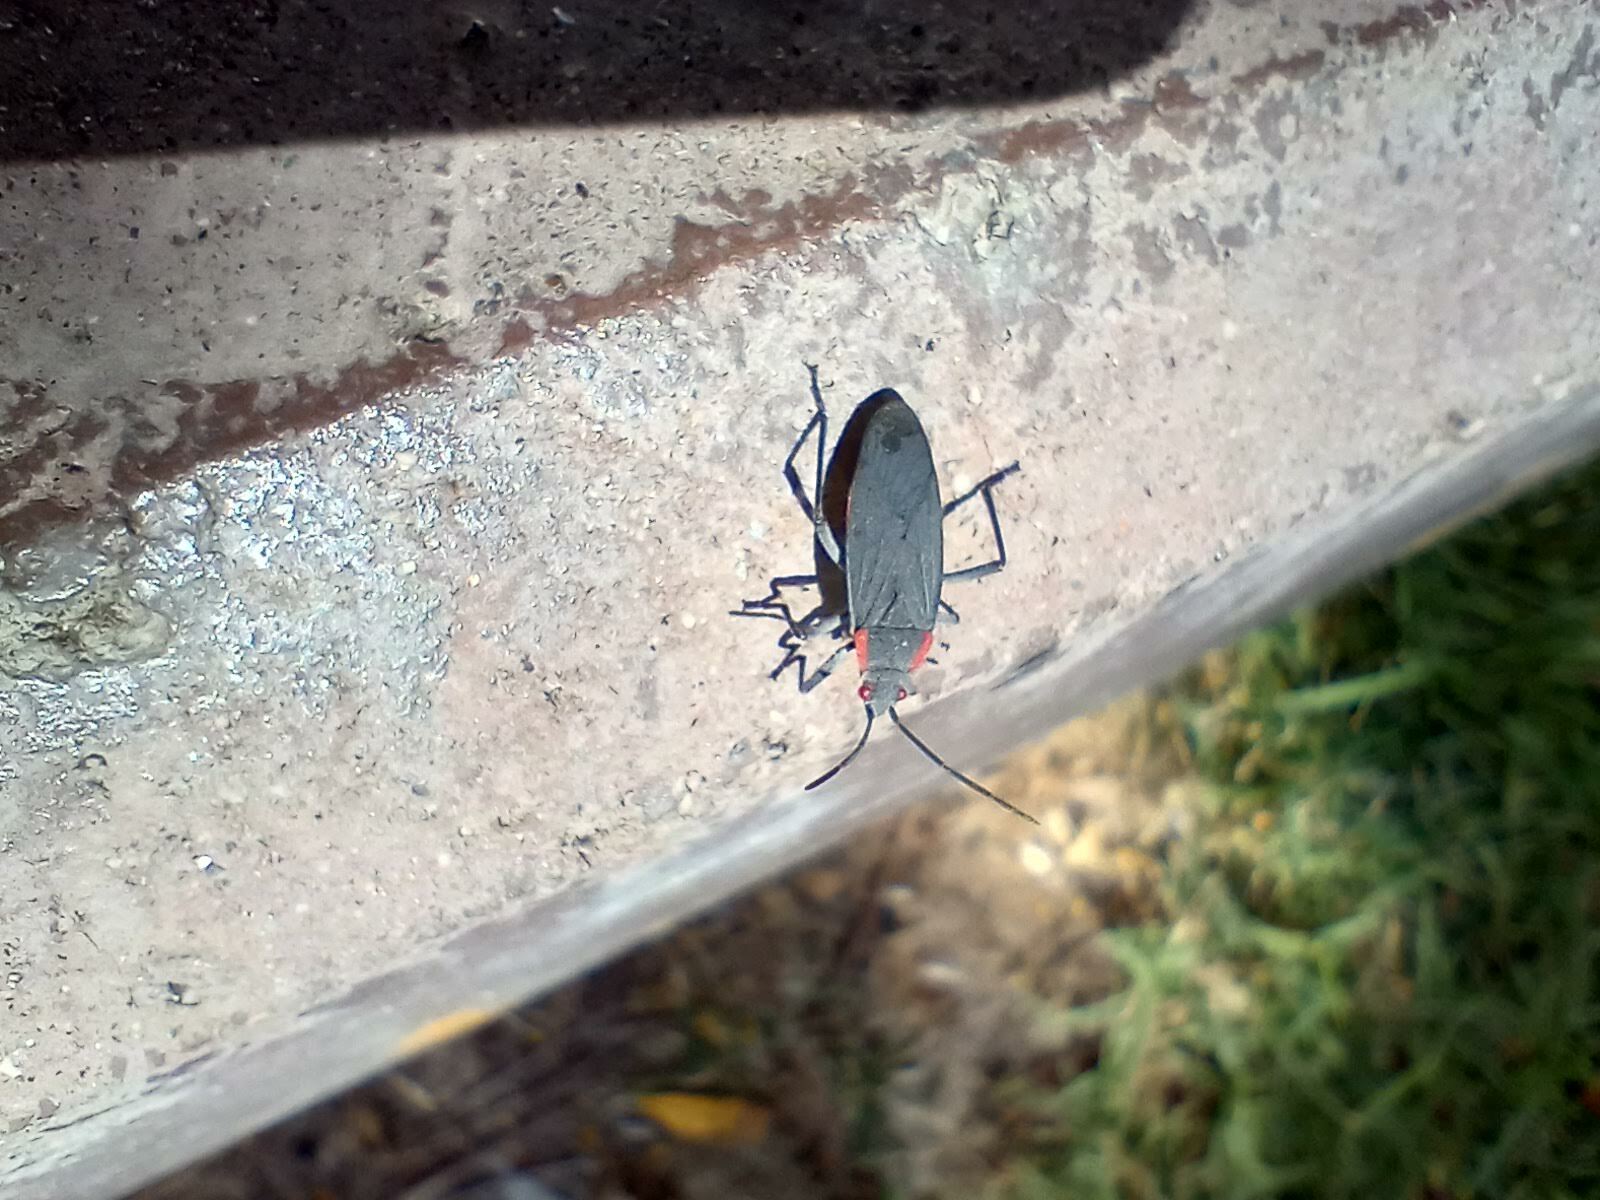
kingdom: Animalia
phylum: Arthropoda
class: Insecta
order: Hemiptera
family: Rhopalidae
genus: Jadera
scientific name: Jadera haematoloma
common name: Red-shouldered bug
